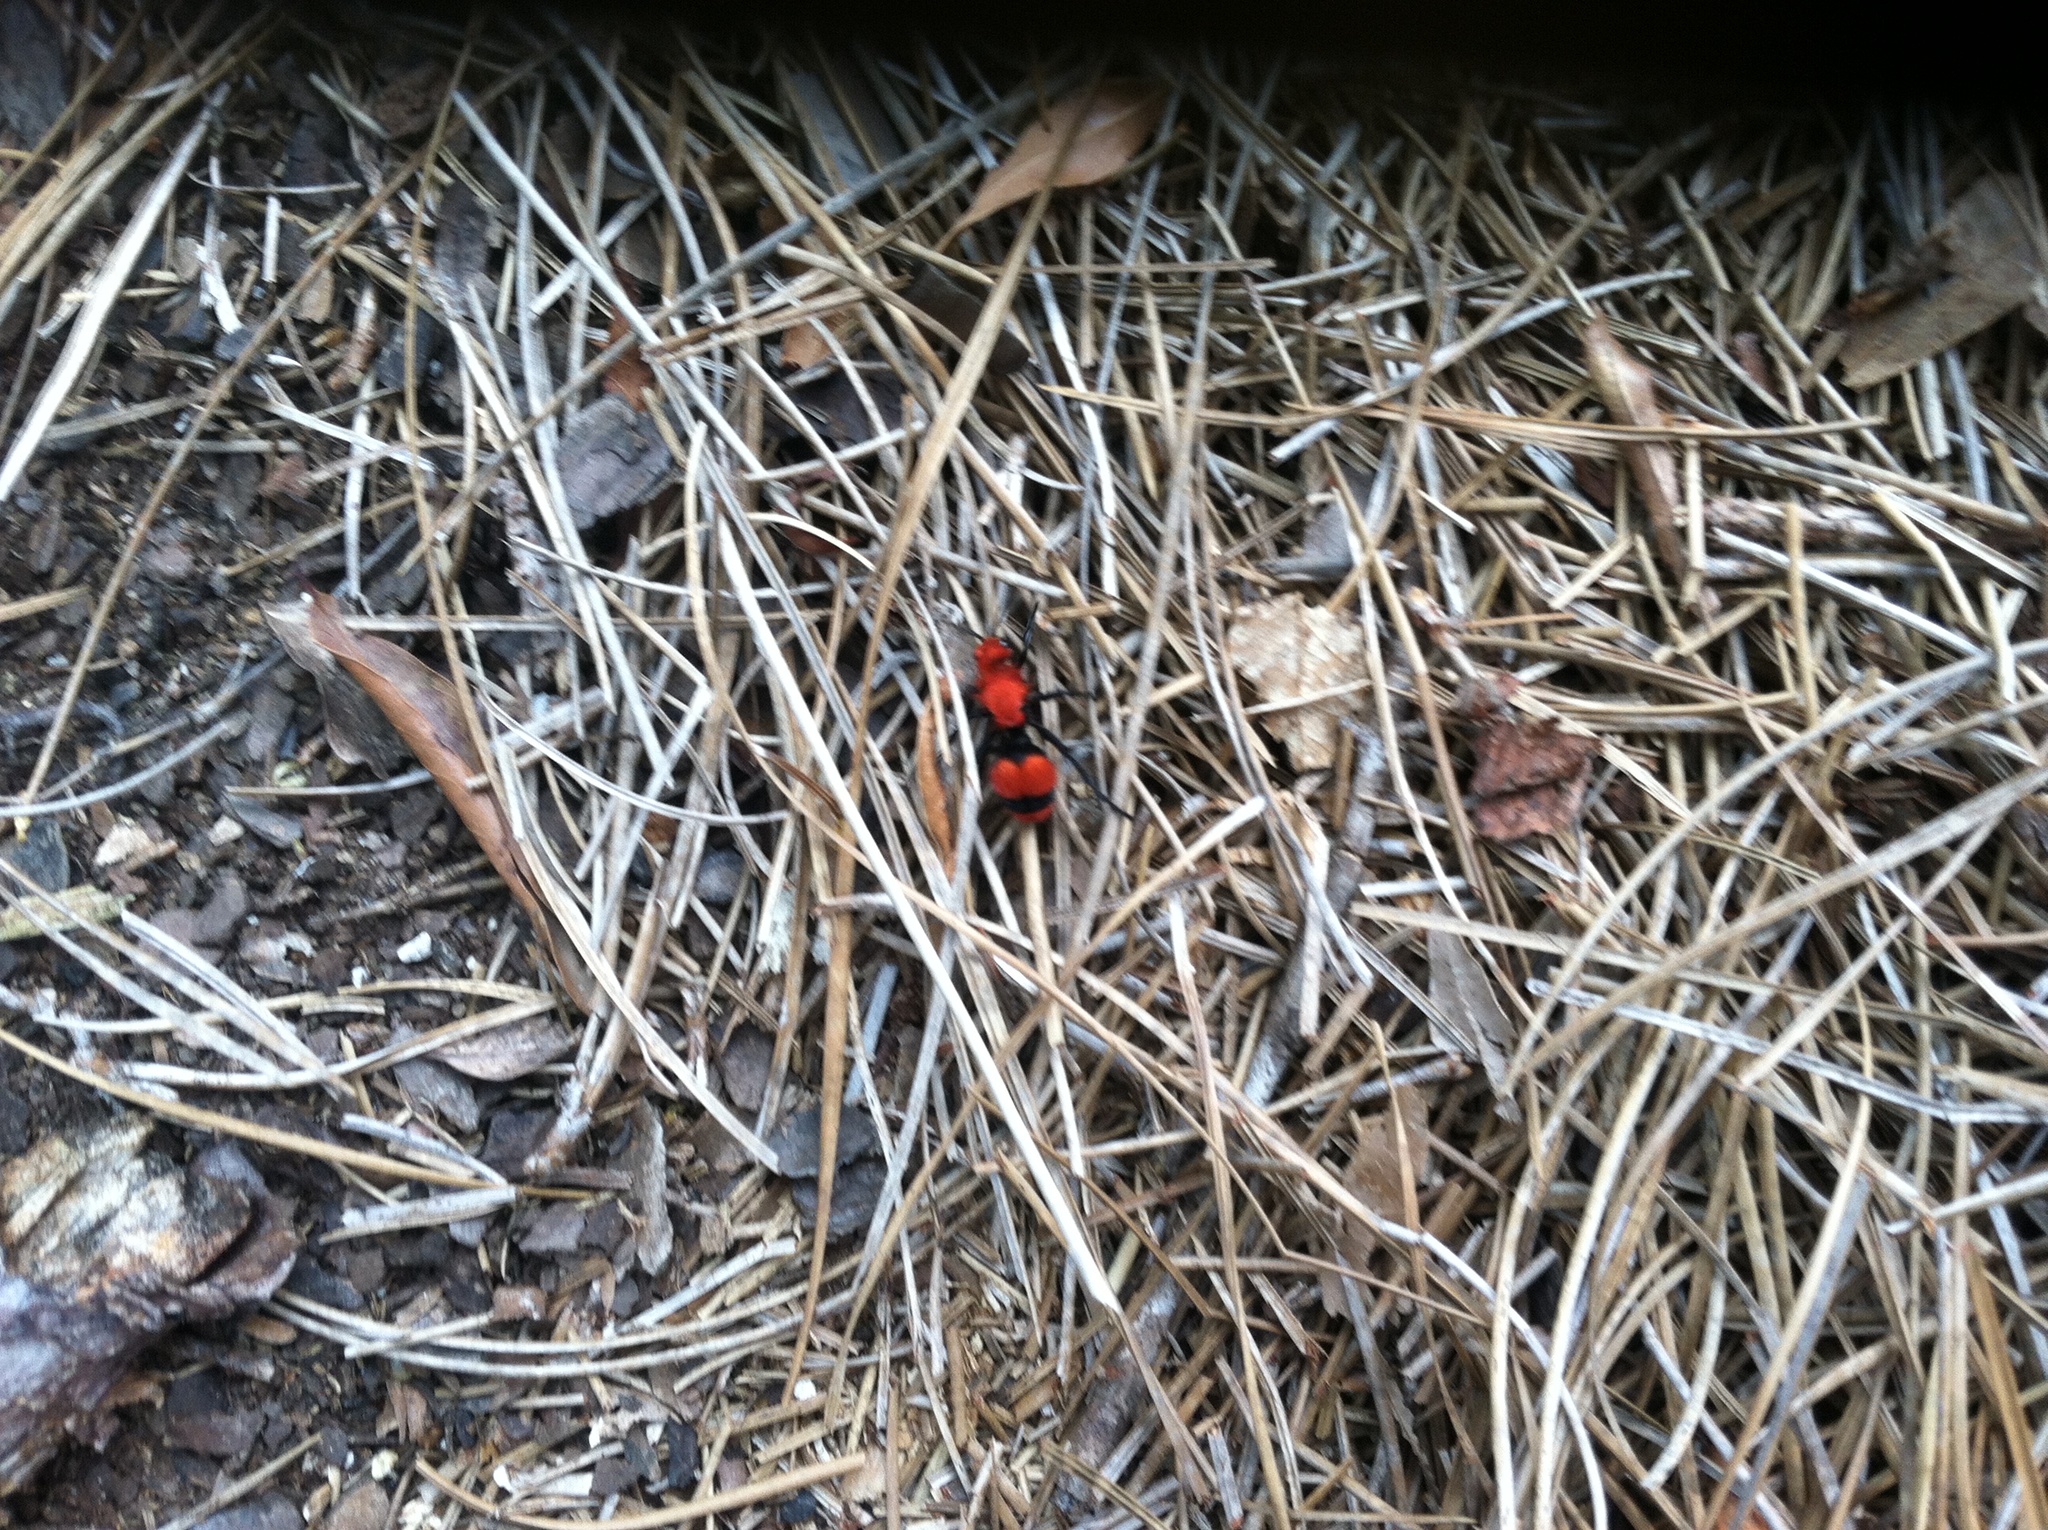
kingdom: Animalia
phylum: Arthropoda
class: Insecta
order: Hymenoptera
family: Mutillidae
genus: Dasymutilla
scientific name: Dasymutilla occidentalis
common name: Common eastern velvet ant
